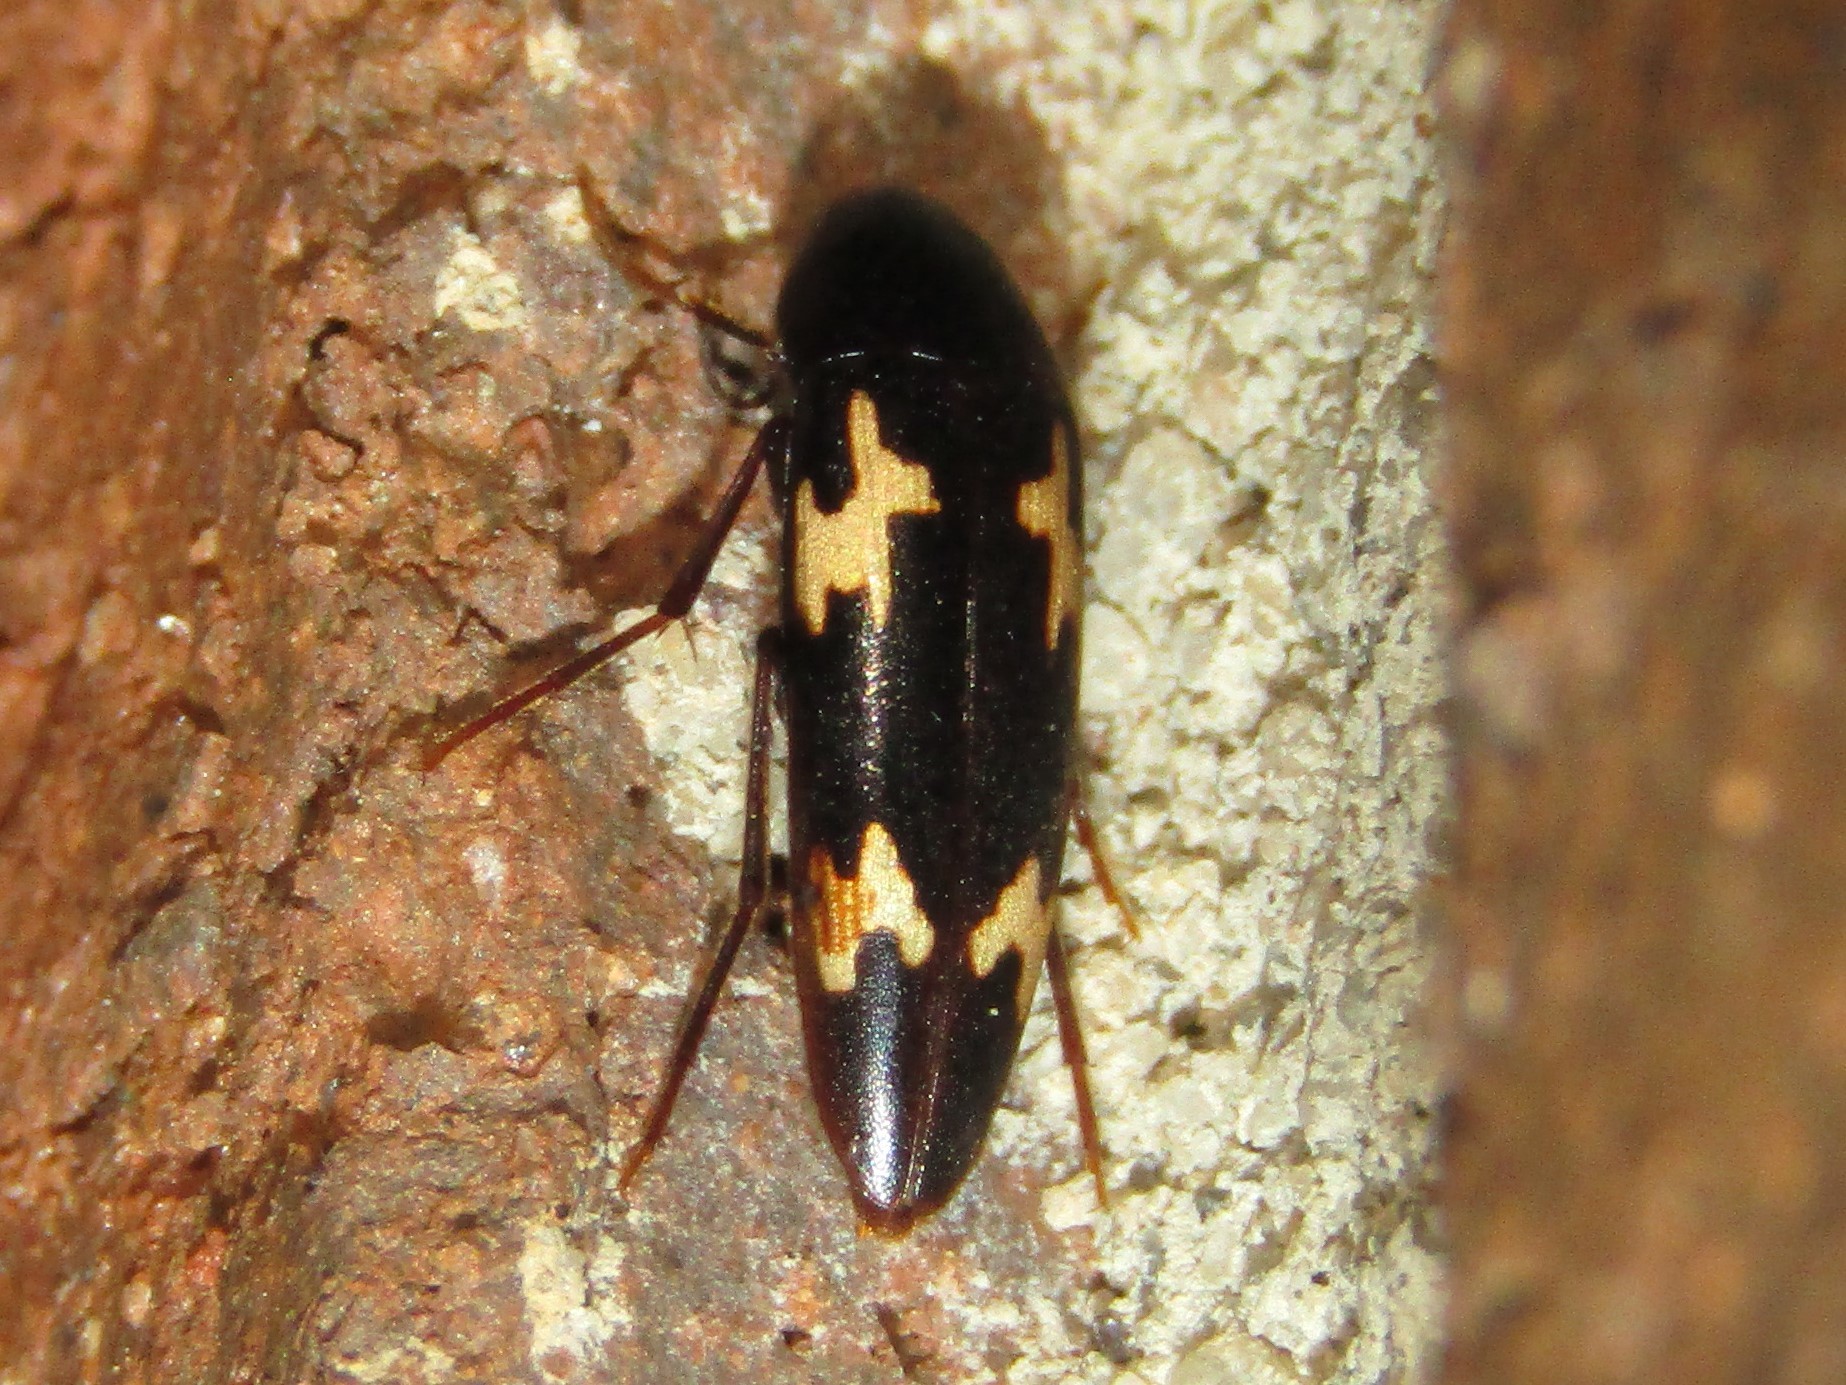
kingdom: Animalia
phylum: Arthropoda
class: Insecta
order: Coleoptera
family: Melandryidae
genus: Dircaea
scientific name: Dircaea liturata
